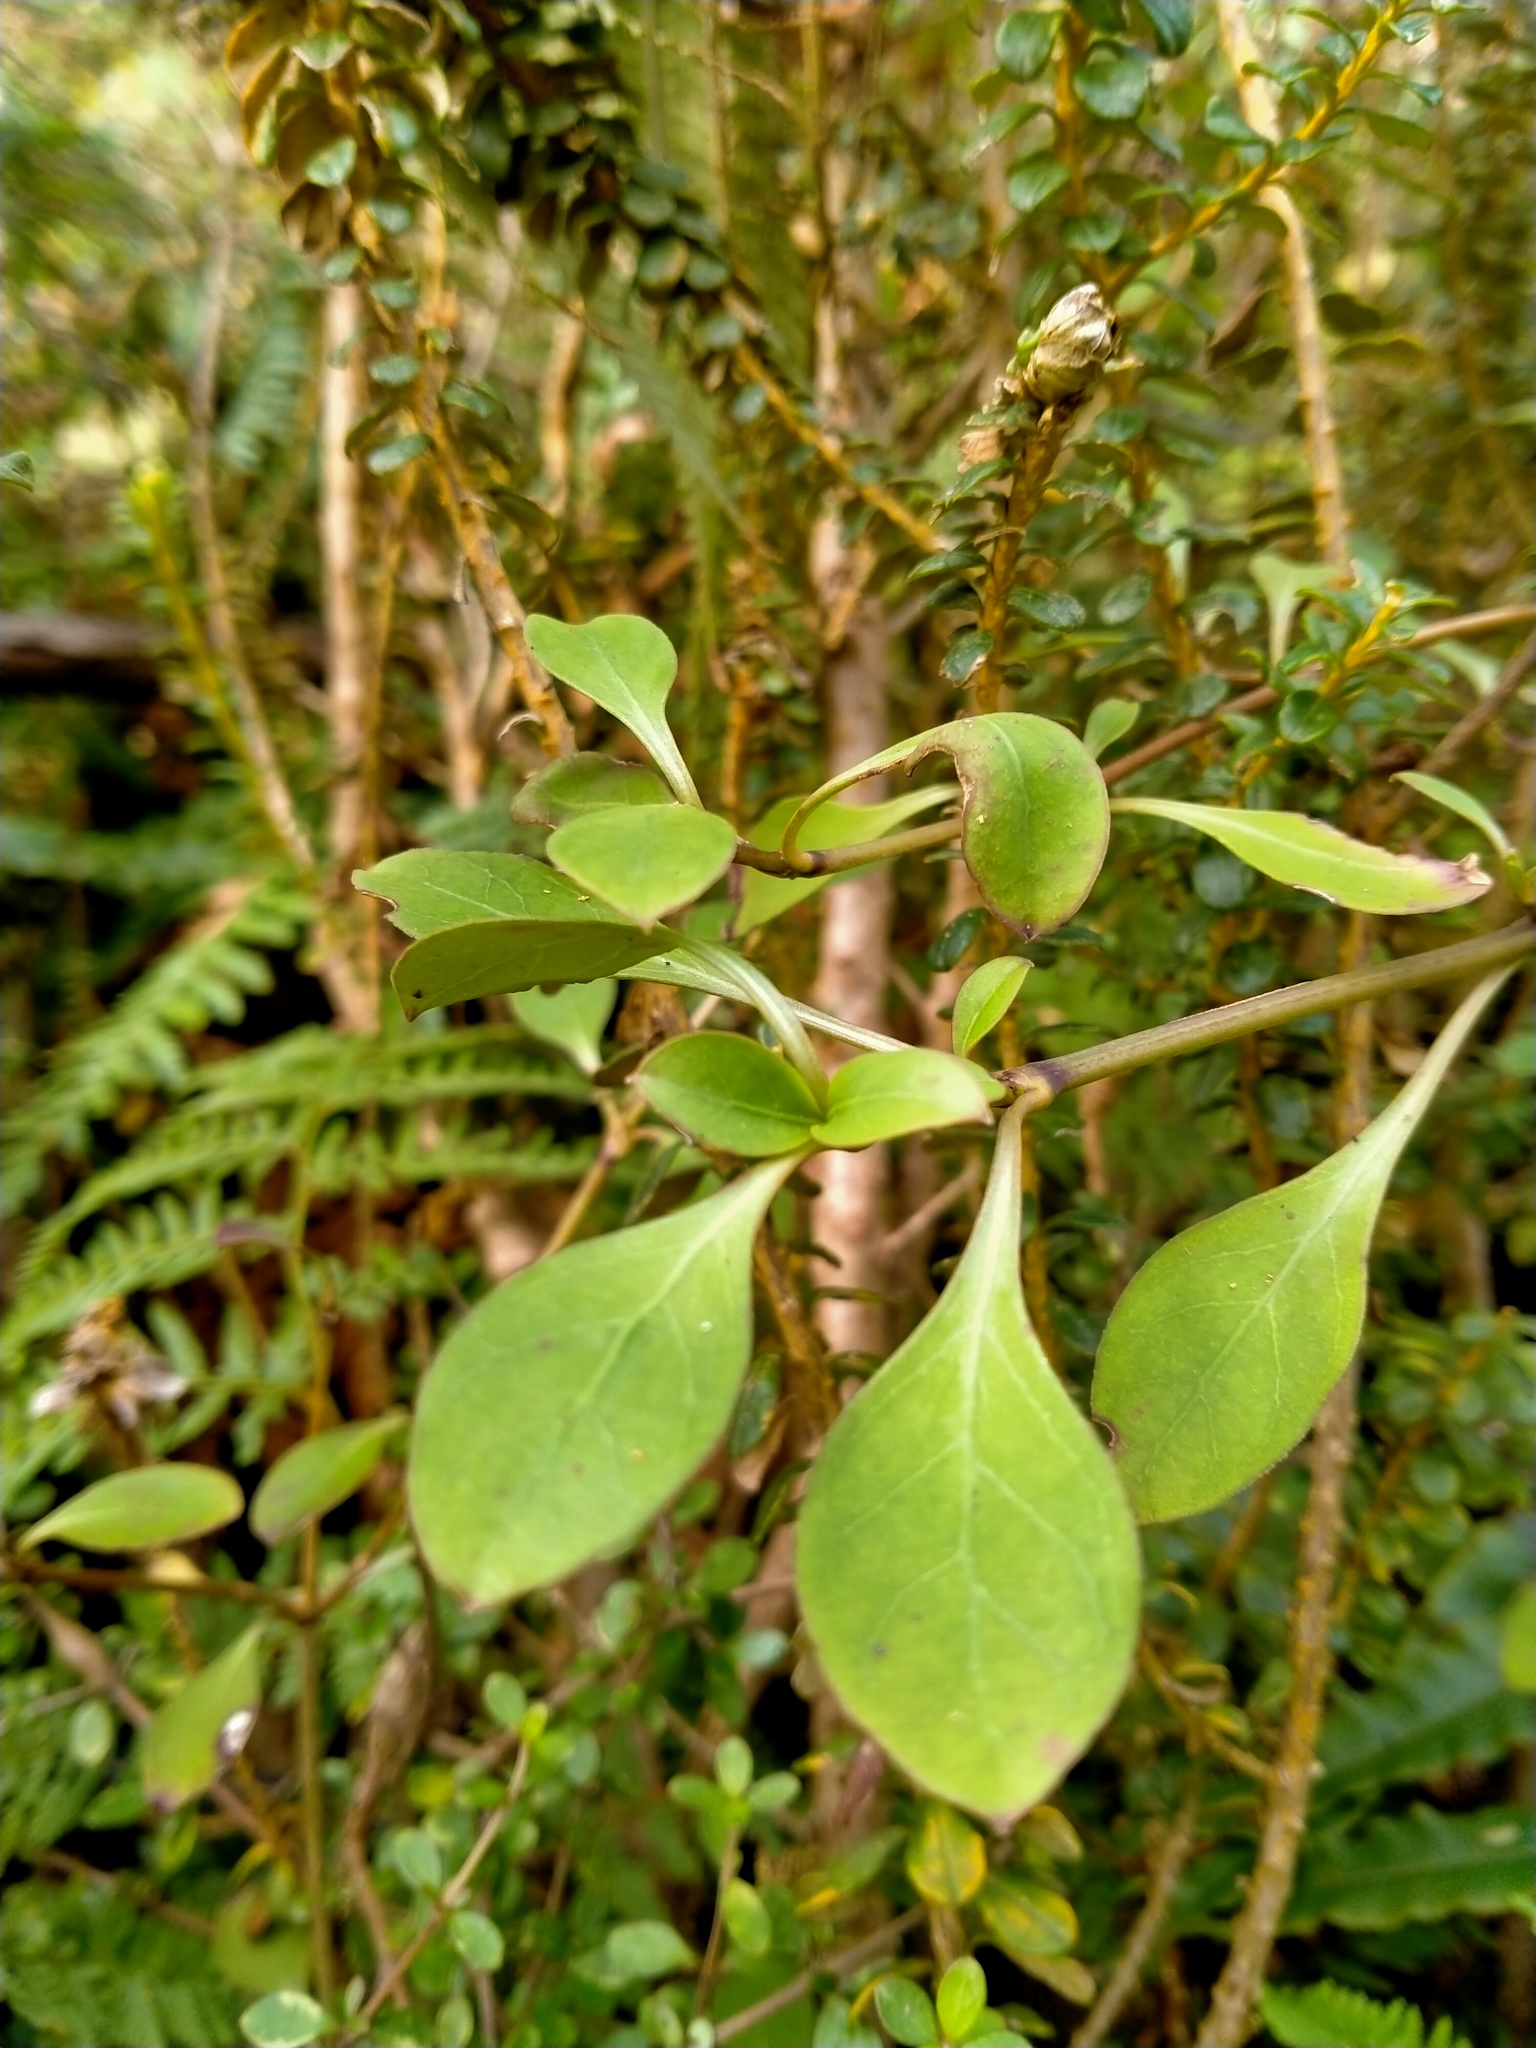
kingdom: Plantae
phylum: Tracheophyta
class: Magnoliopsida
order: Gentianales
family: Rubiaceae
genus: Coprosma
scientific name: Coprosma foetidissima
